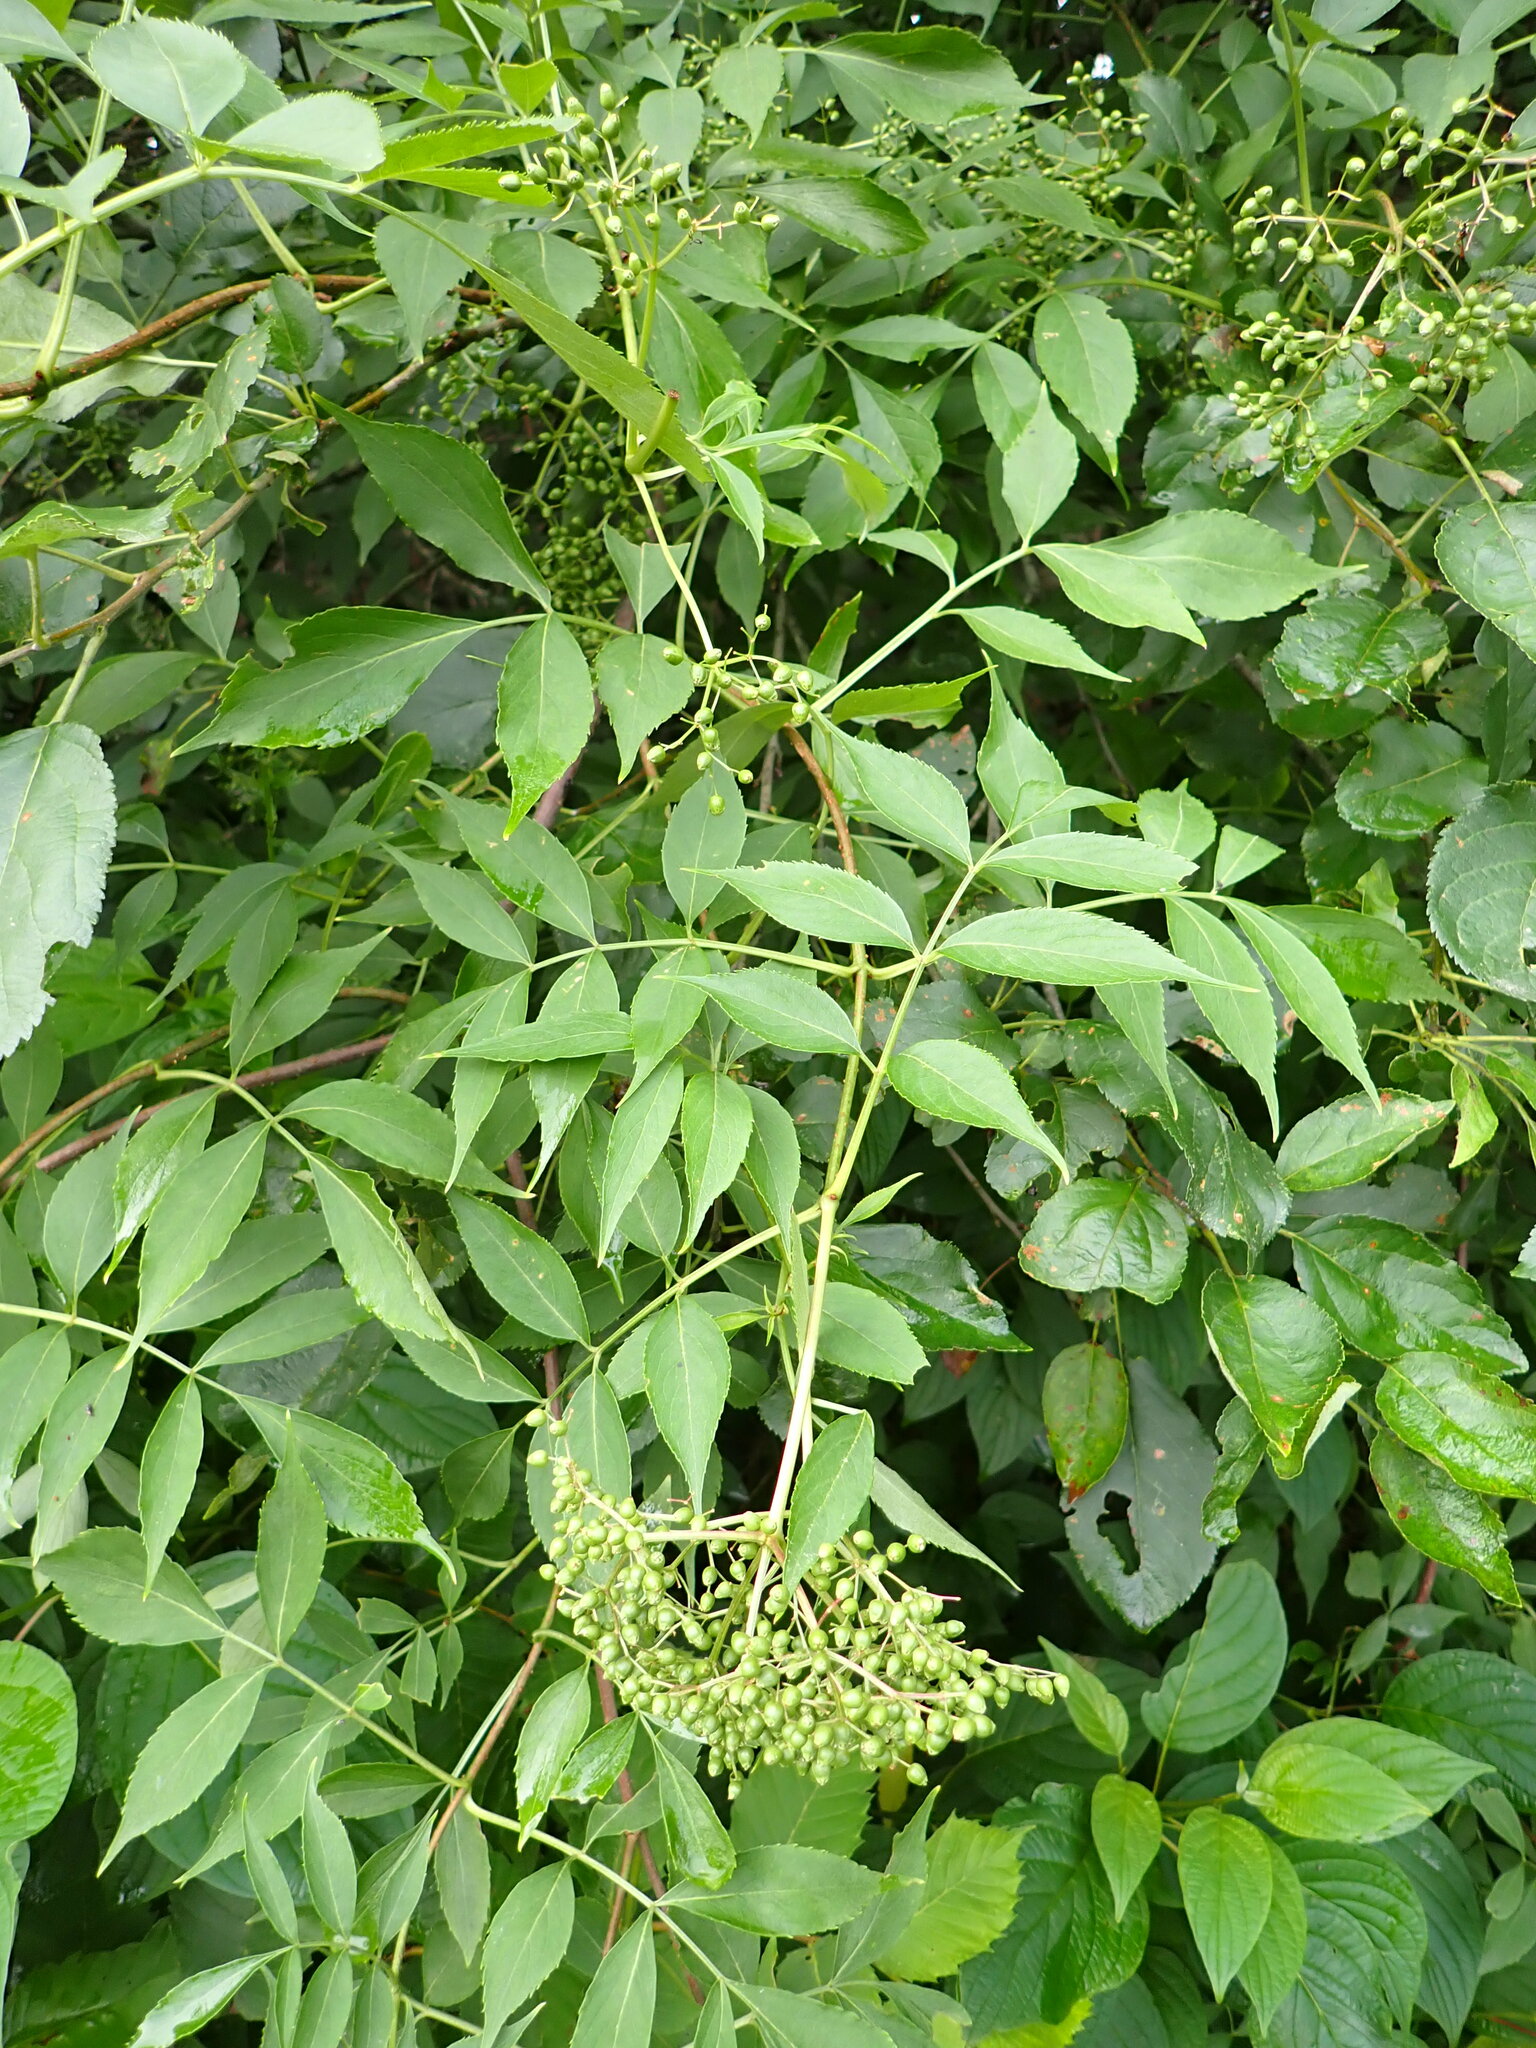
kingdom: Plantae
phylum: Tracheophyta
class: Magnoliopsida
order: Dipsacales
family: Viburnaceae
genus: Sambucus
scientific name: Sambucus canadensis
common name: American elder
